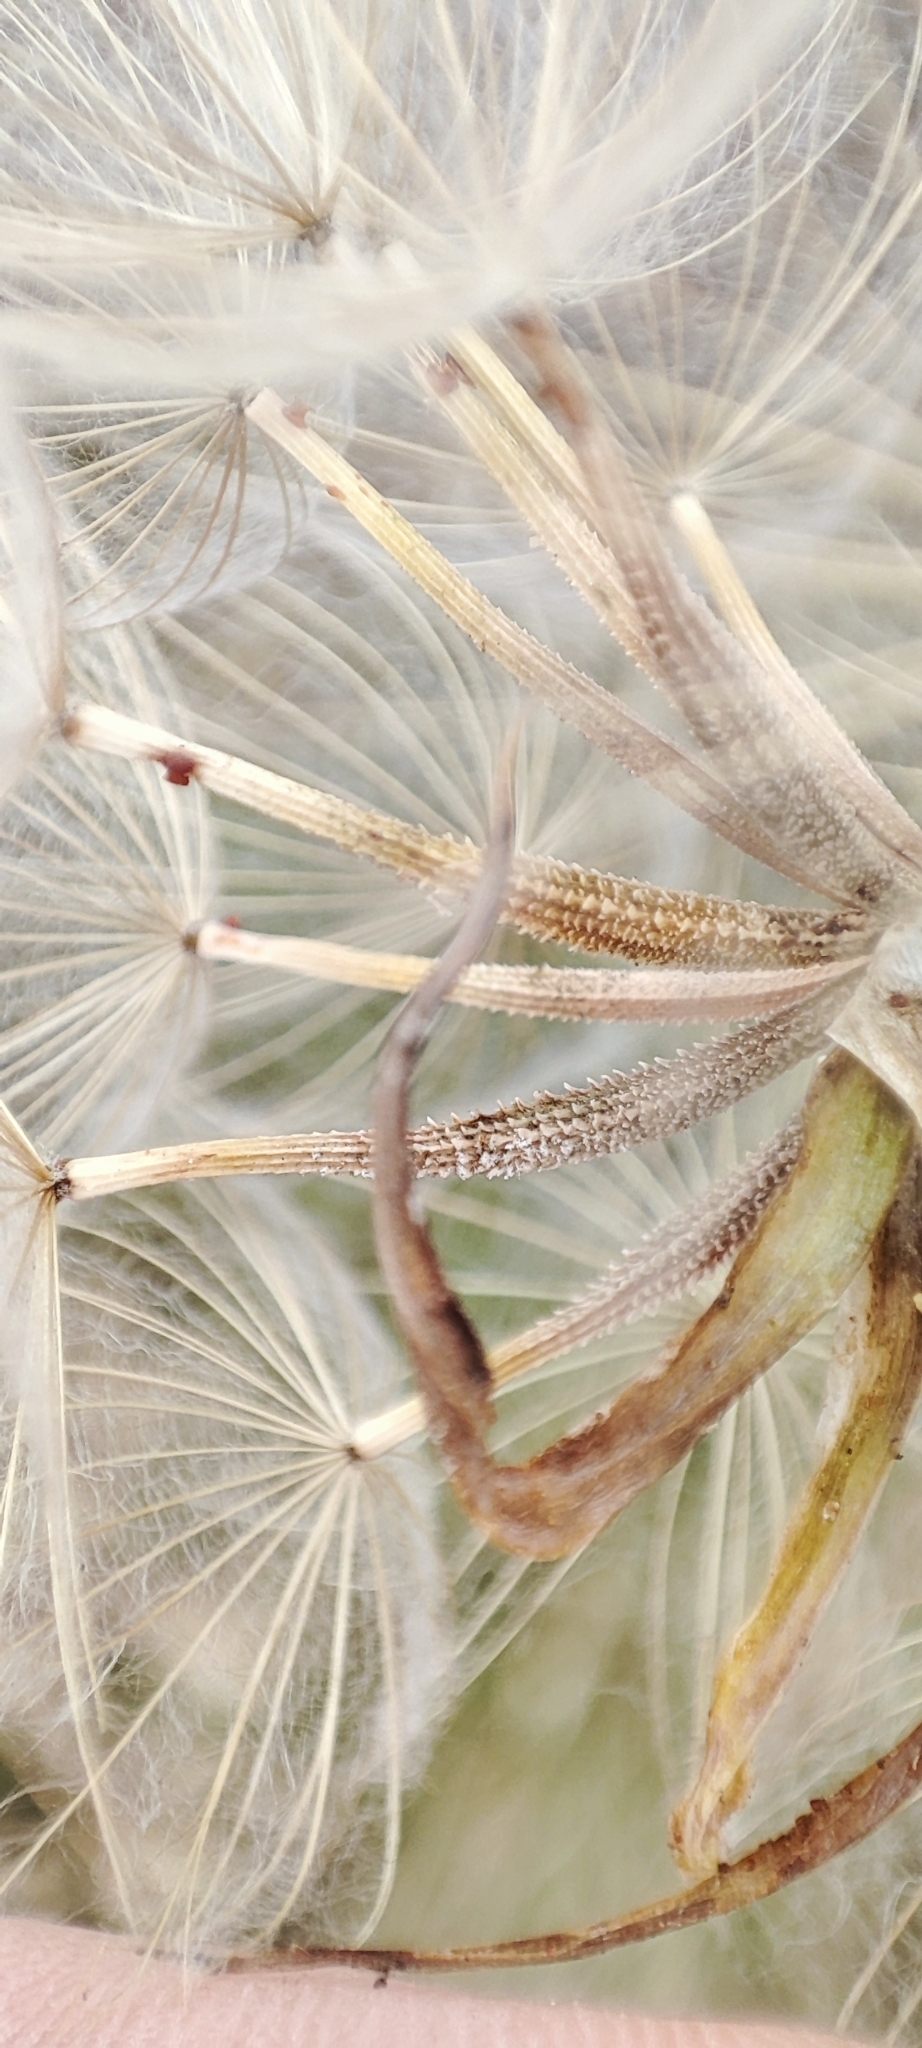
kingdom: Plantae
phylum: Tracheophyta
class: Magnoliopsida
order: Asterales
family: Asteraceae
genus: Tragopogon
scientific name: Tragopogon dubius
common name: Yellow salsify
